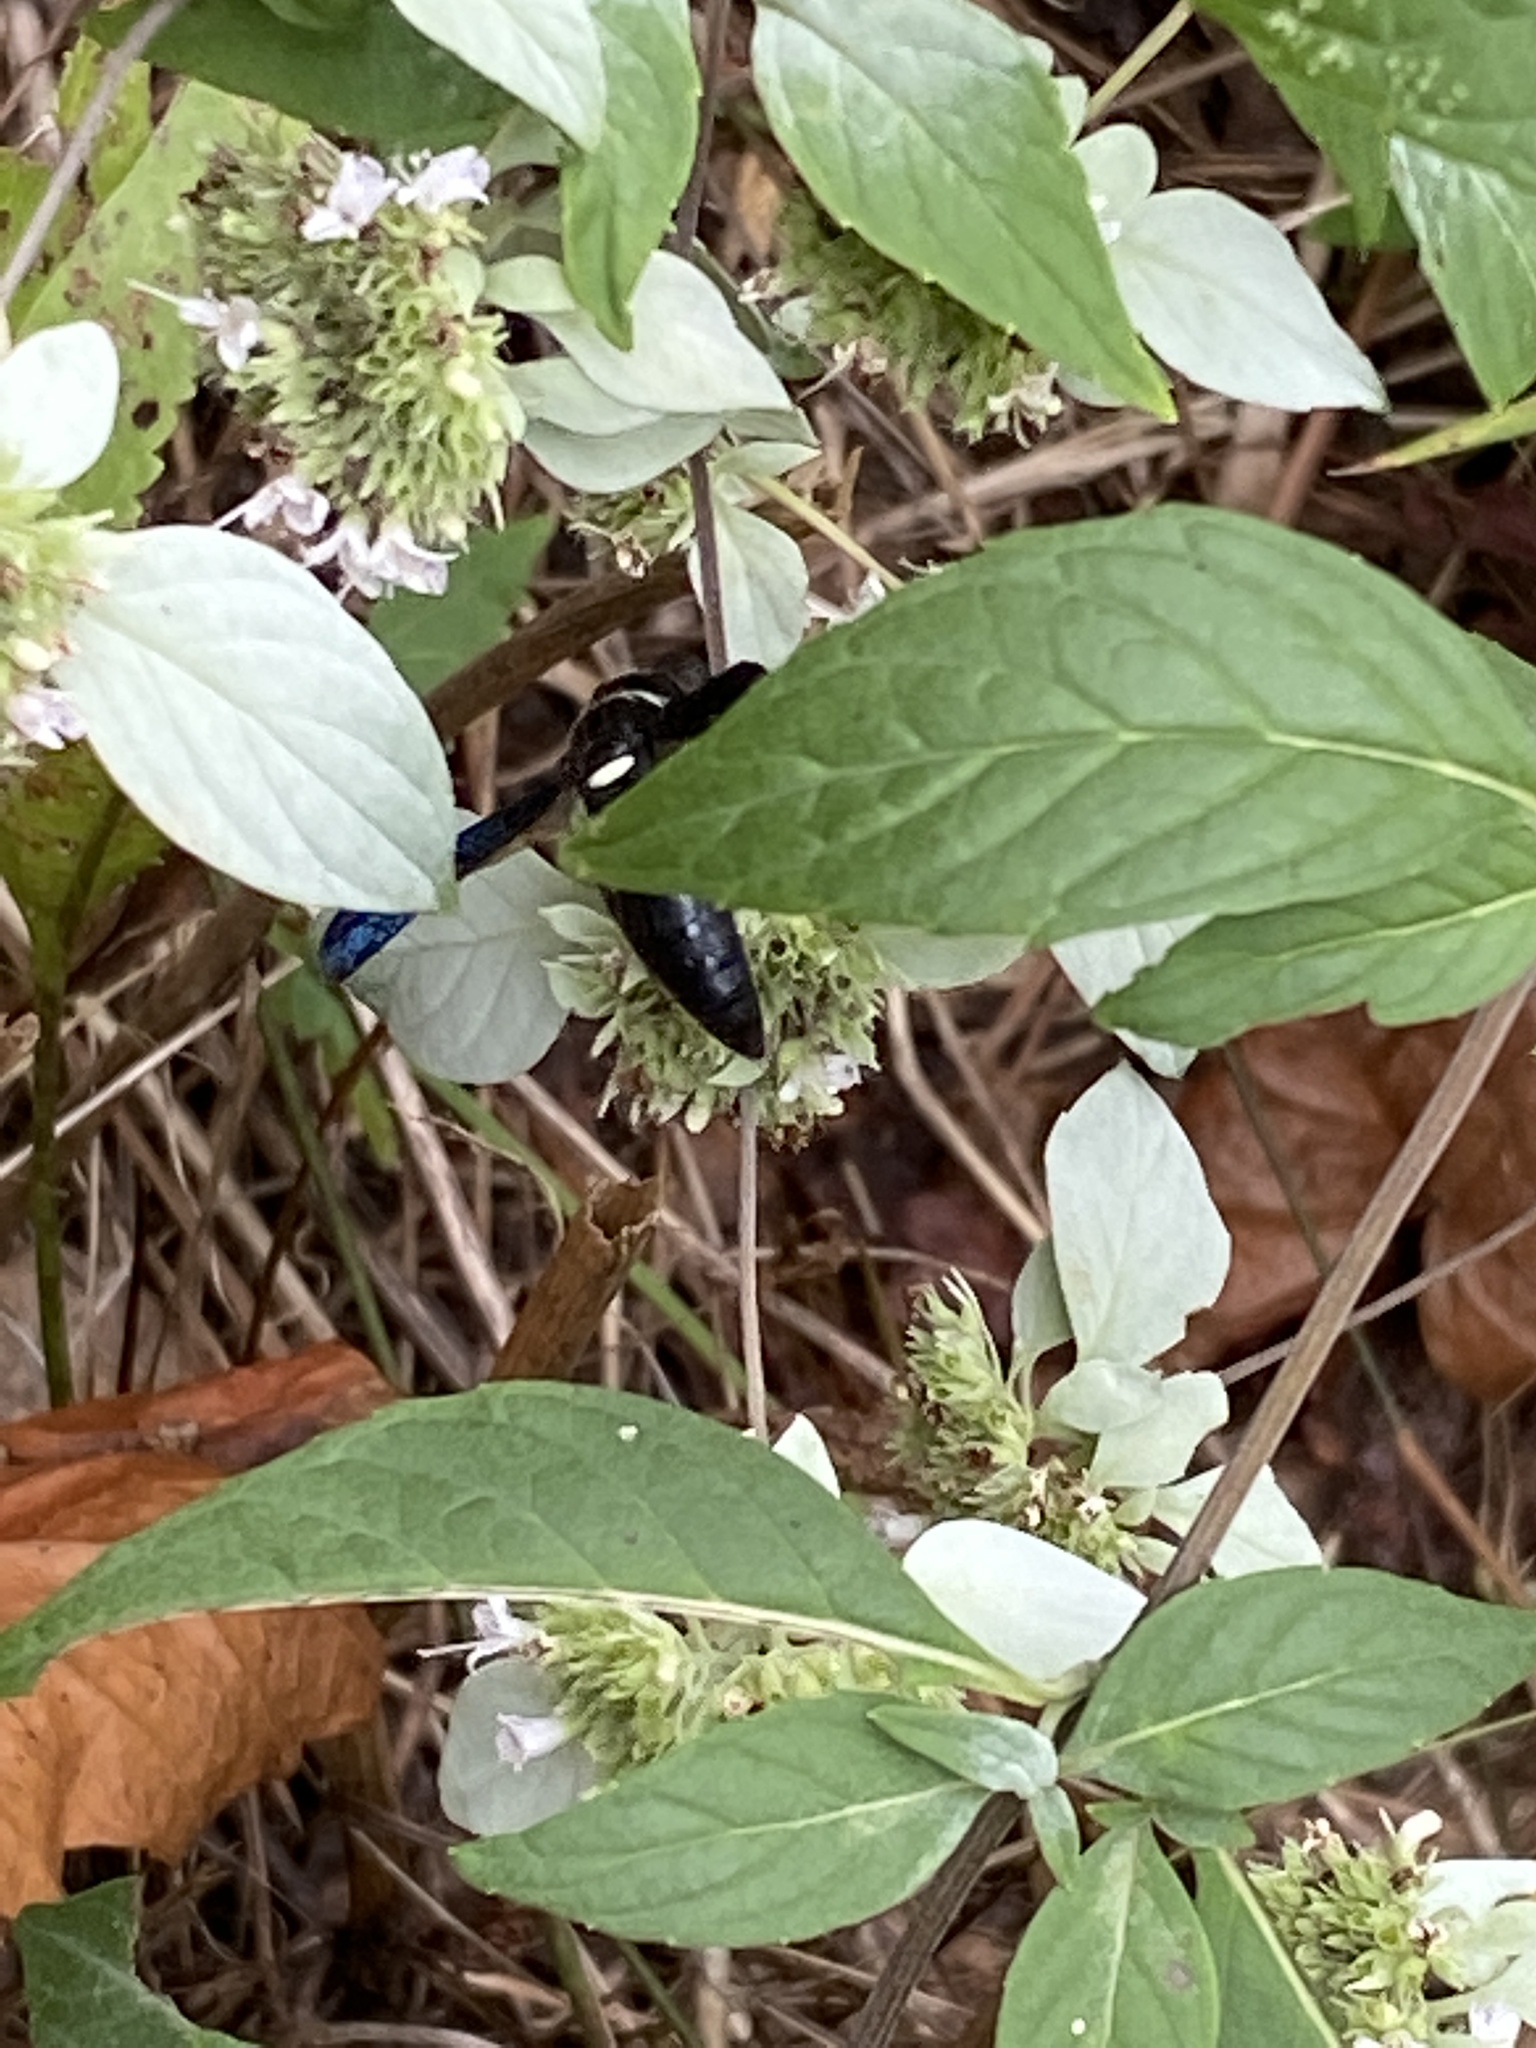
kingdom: Animalia
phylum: Arthropoda
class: Insecta
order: Hymenoptera
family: Eumenidae
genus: Monobia
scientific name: Monobia quadridens
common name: Four-toothed mason wasp
